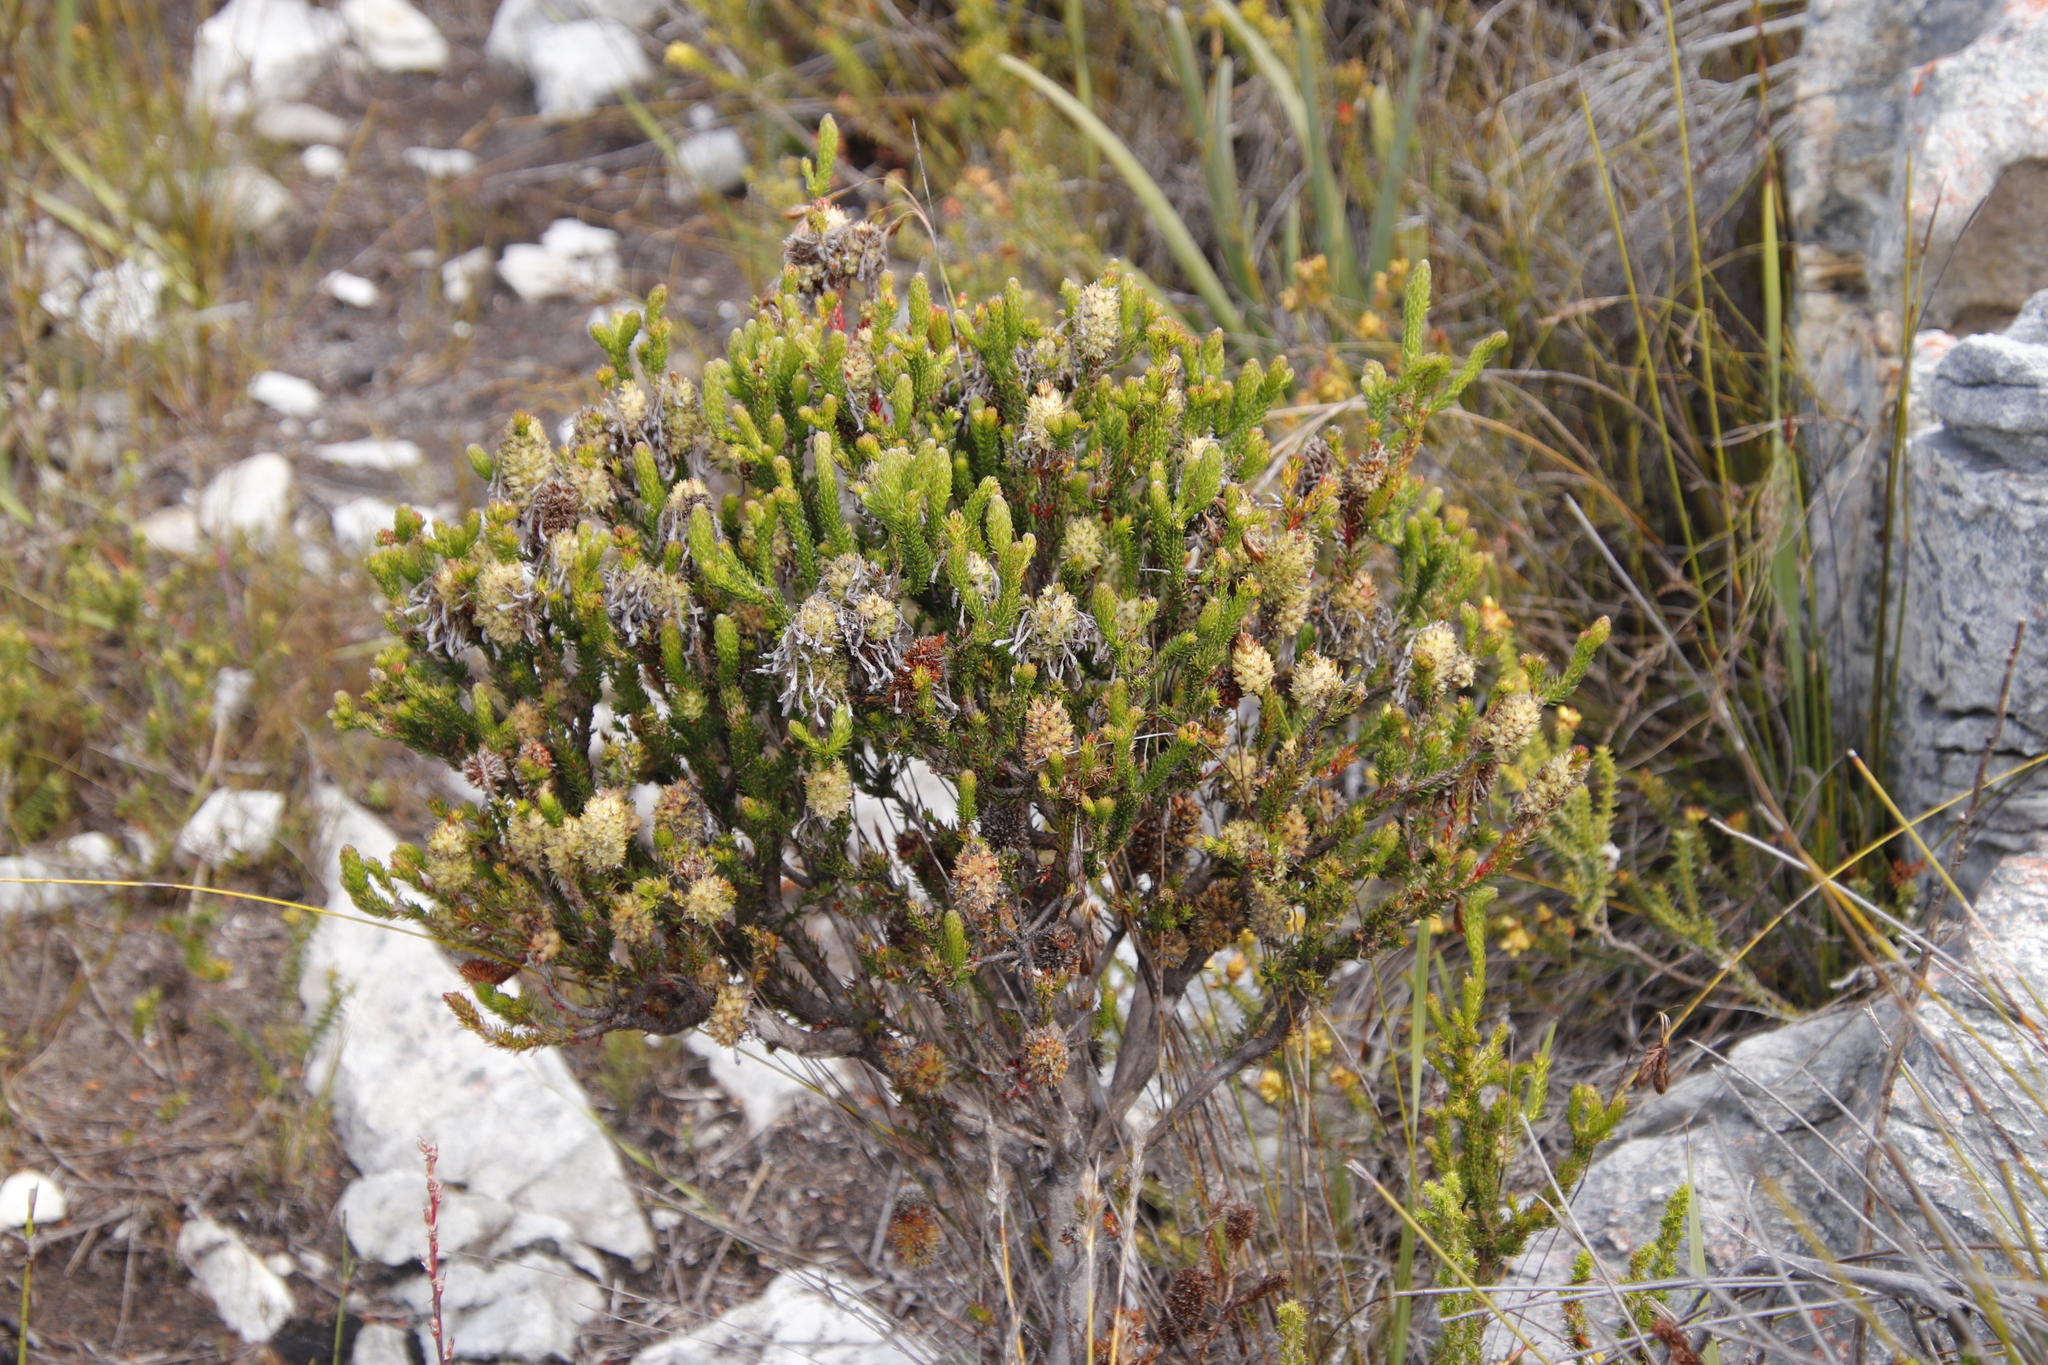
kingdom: Plantae
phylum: Tracheophyta
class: Magnoliopsida
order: Ericales
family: Ericaceae
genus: Erica
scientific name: Erica sessiliflora
